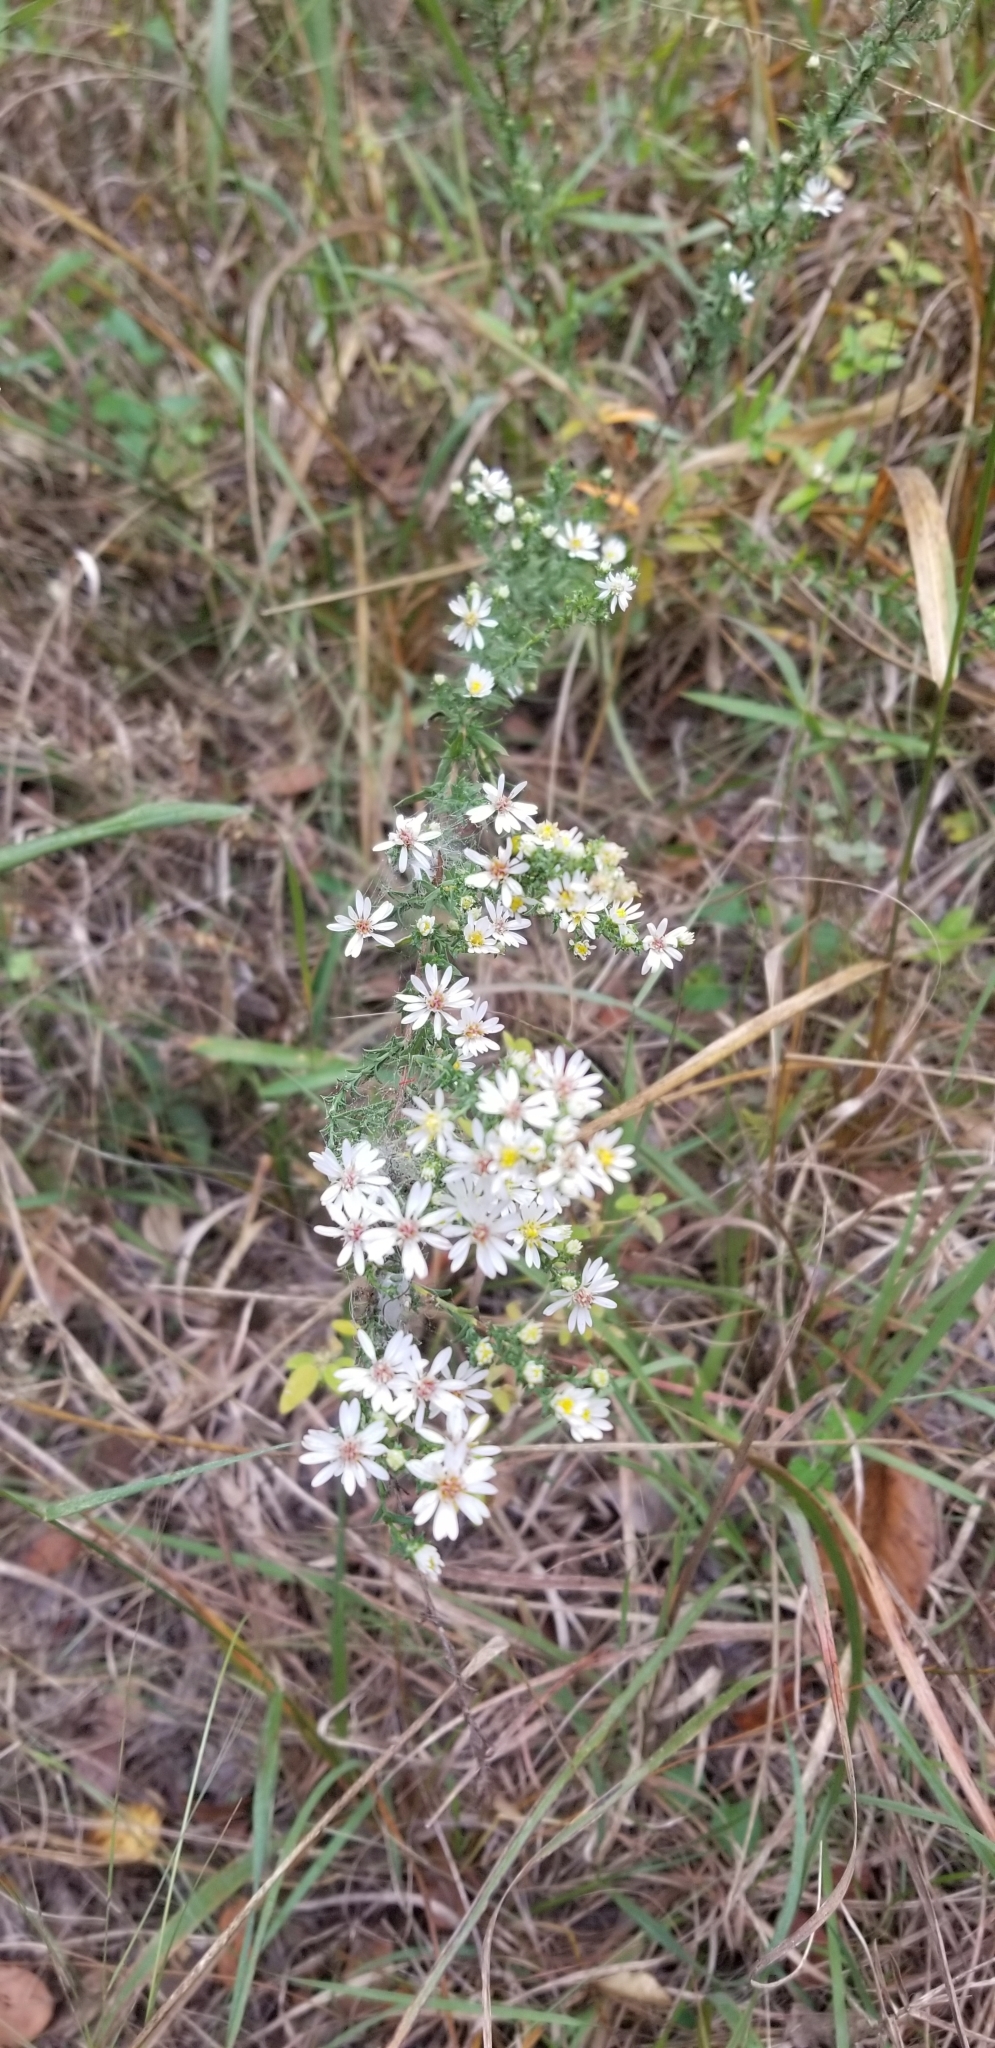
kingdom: Plantae
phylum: Tracheophyta
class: Magnoliopsida
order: Asterales
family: Asteraceae
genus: Symphyotrichum
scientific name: Symphyotrichum ericoides
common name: Heath aster
